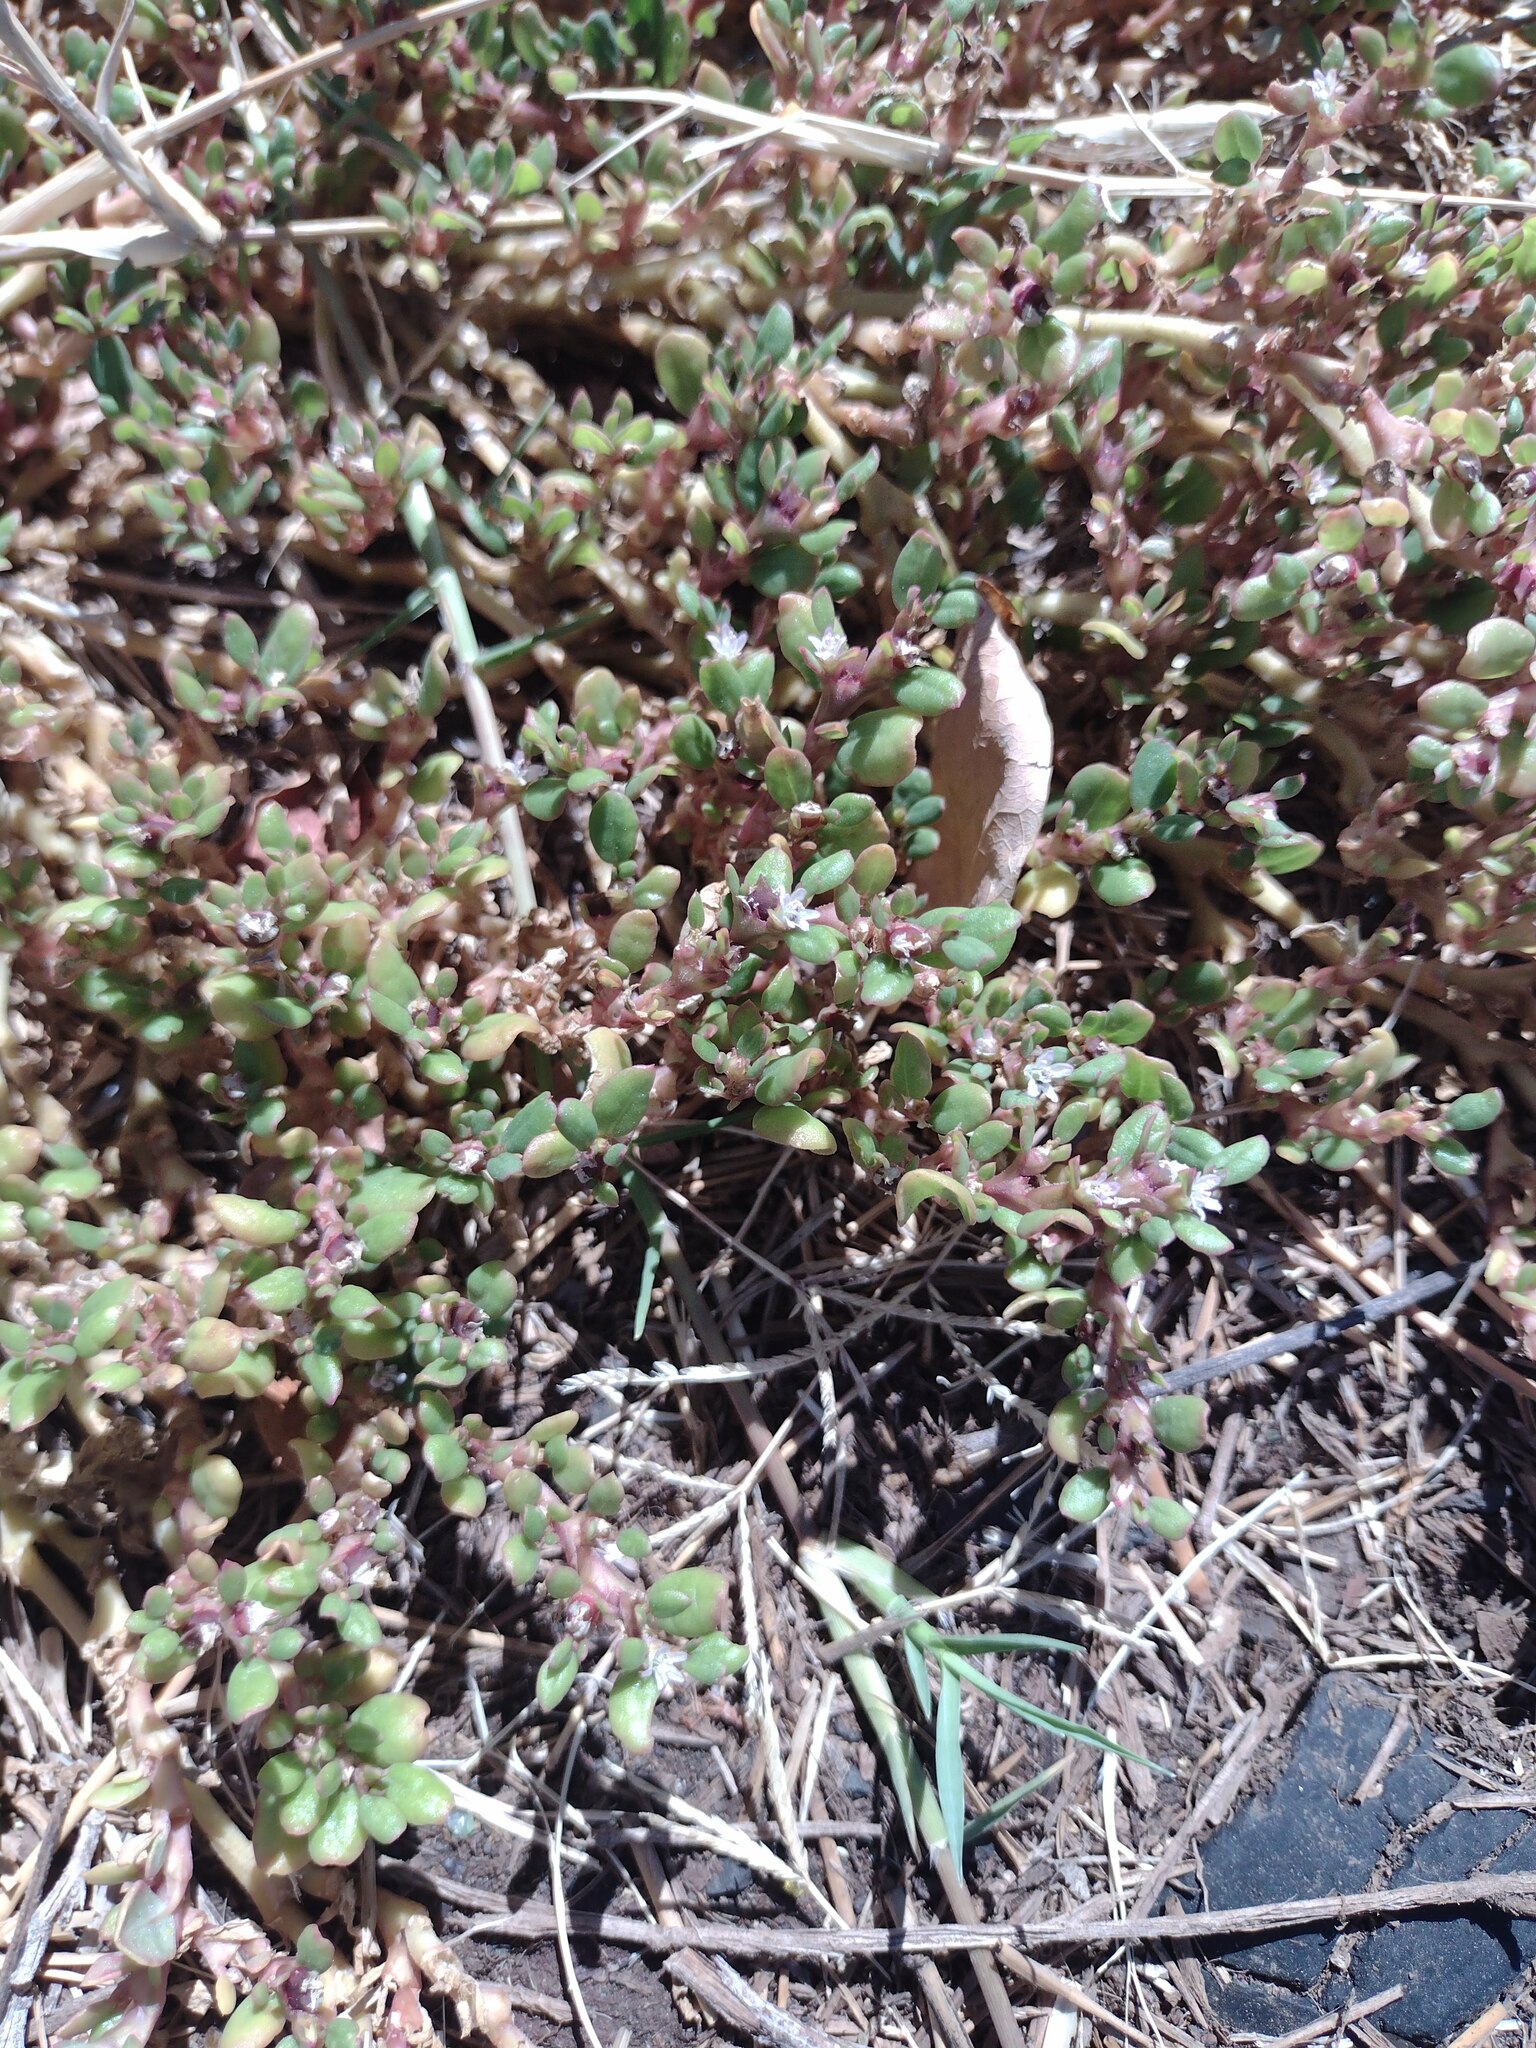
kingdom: Plantae
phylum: Tracheophyta
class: Magnoliopsida
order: Caryophyllales
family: Aizoaceae
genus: Trianthema
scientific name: Trianthema portulacastrum
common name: Desert horsepurslane
